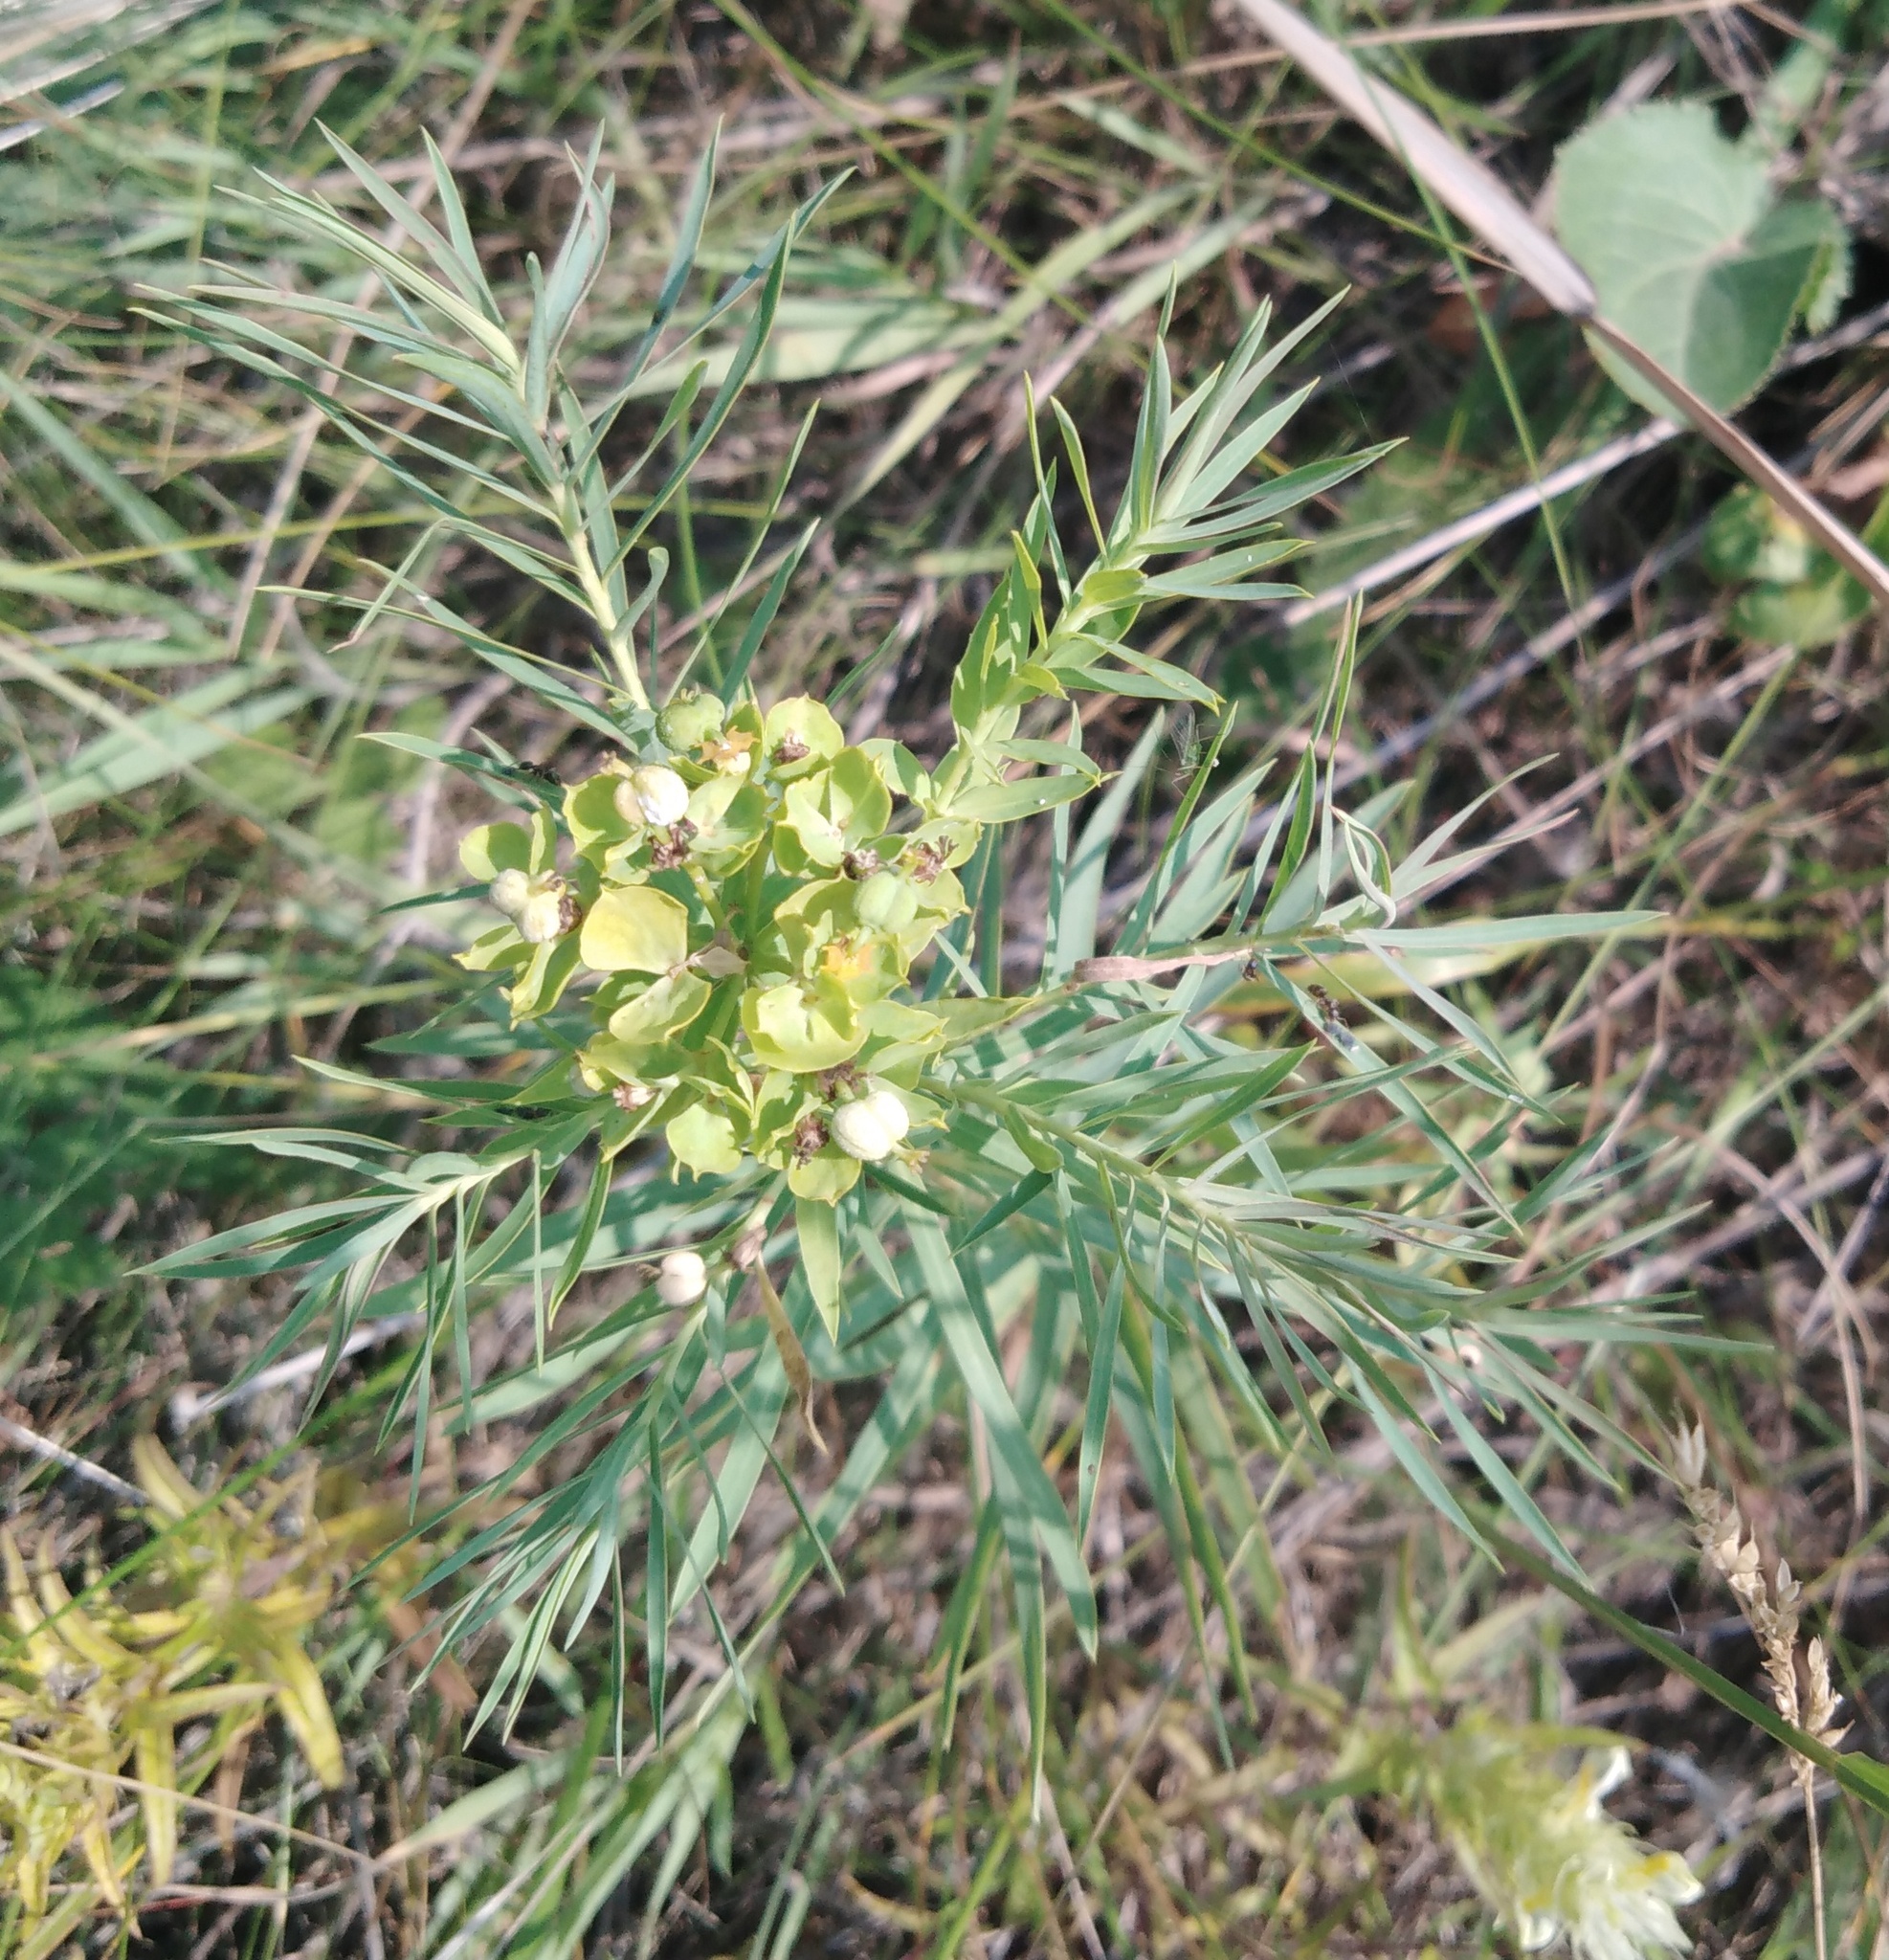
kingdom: Plantae
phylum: Tracheophyta
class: Magnoliopsida
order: Malpighiales
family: Euphorbiaceae
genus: Euphorbia
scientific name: Euphorbia virgata
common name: Leafy spurge
